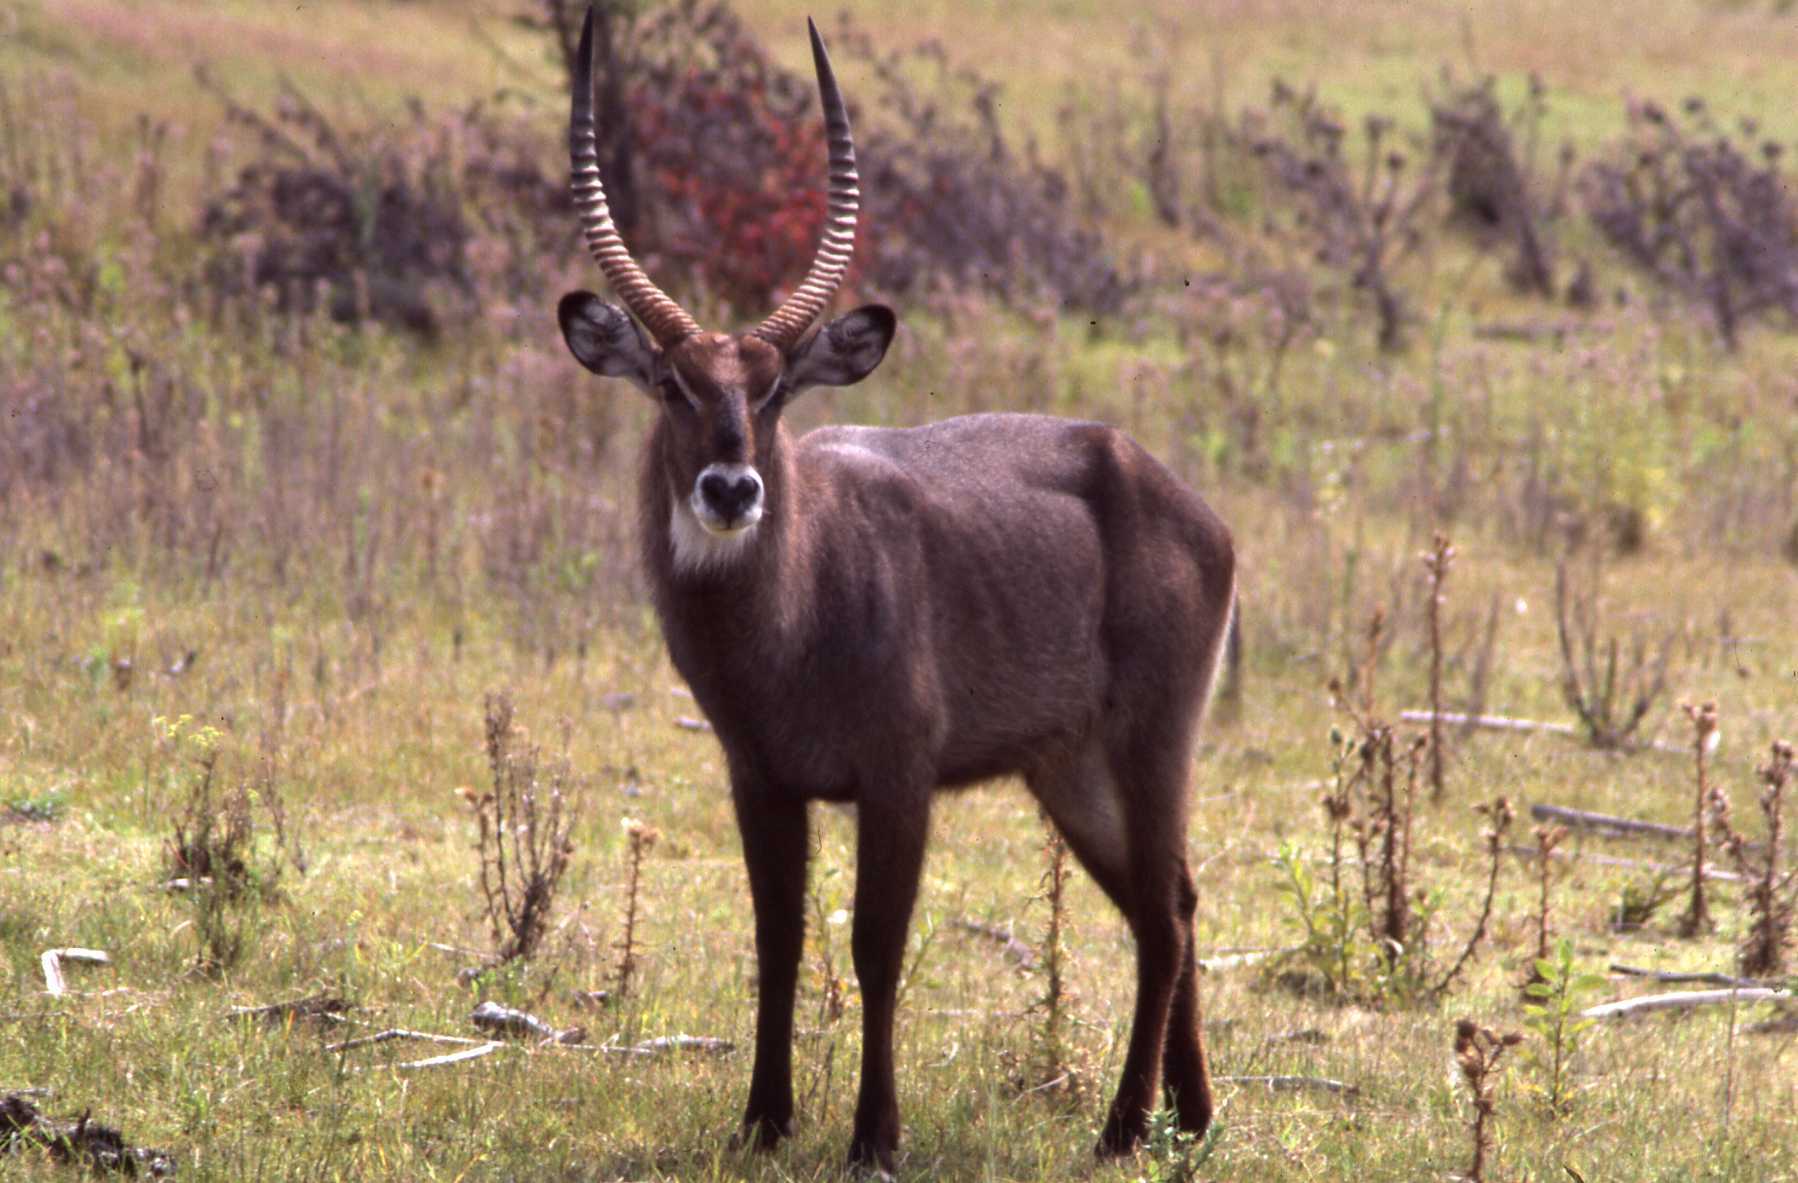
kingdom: Animalia
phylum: Chordata
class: Mammalia
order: Artiodactyla
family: Bovidae
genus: Kobus
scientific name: Kobus ellipsiprymnus
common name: Waterbuck
